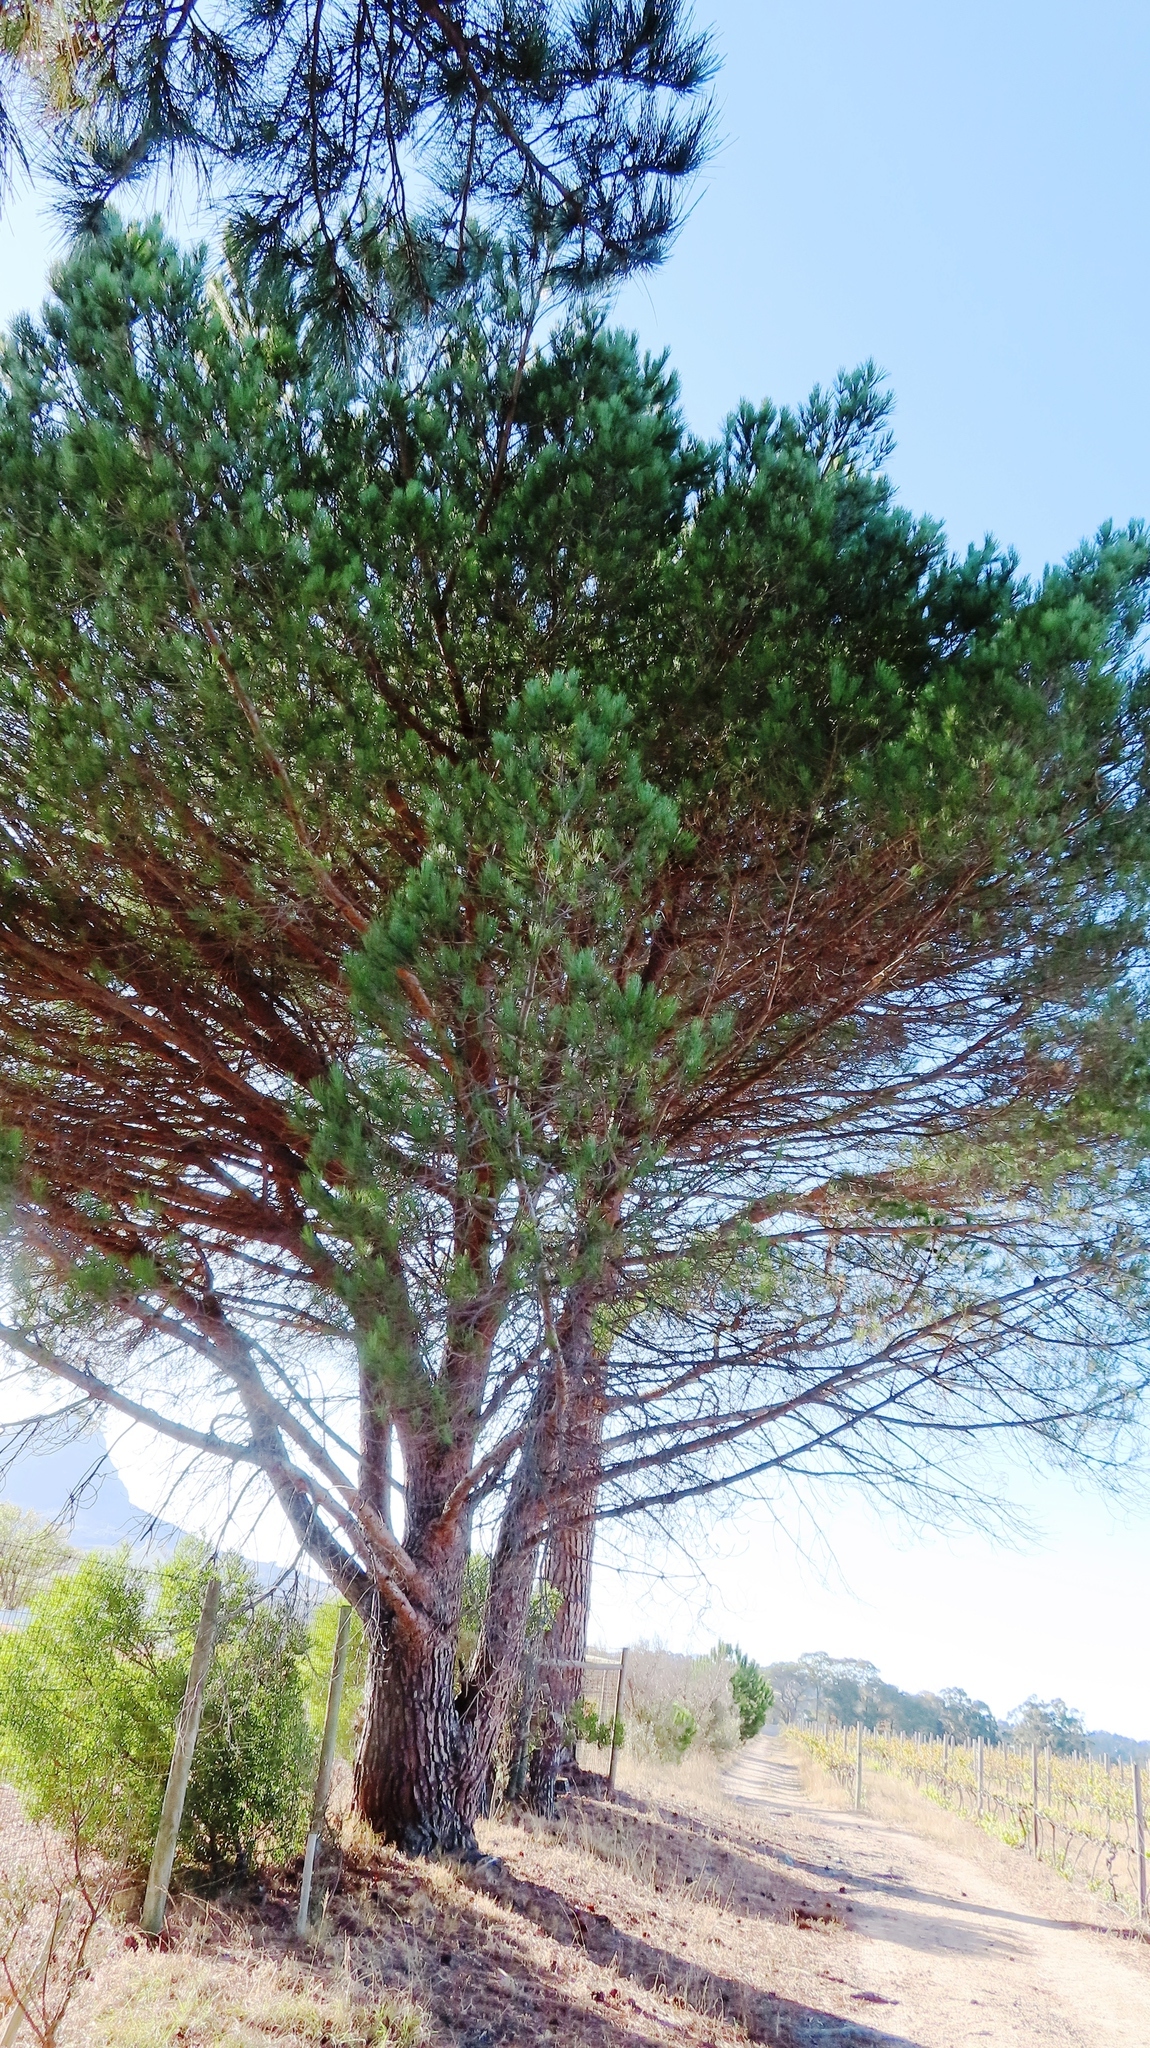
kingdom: Plantae
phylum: Tracheophyta
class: Pinopsida
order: Pinales
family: Pinaceae
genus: Pinus
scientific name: Pinus pinea
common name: Italian stone pine
